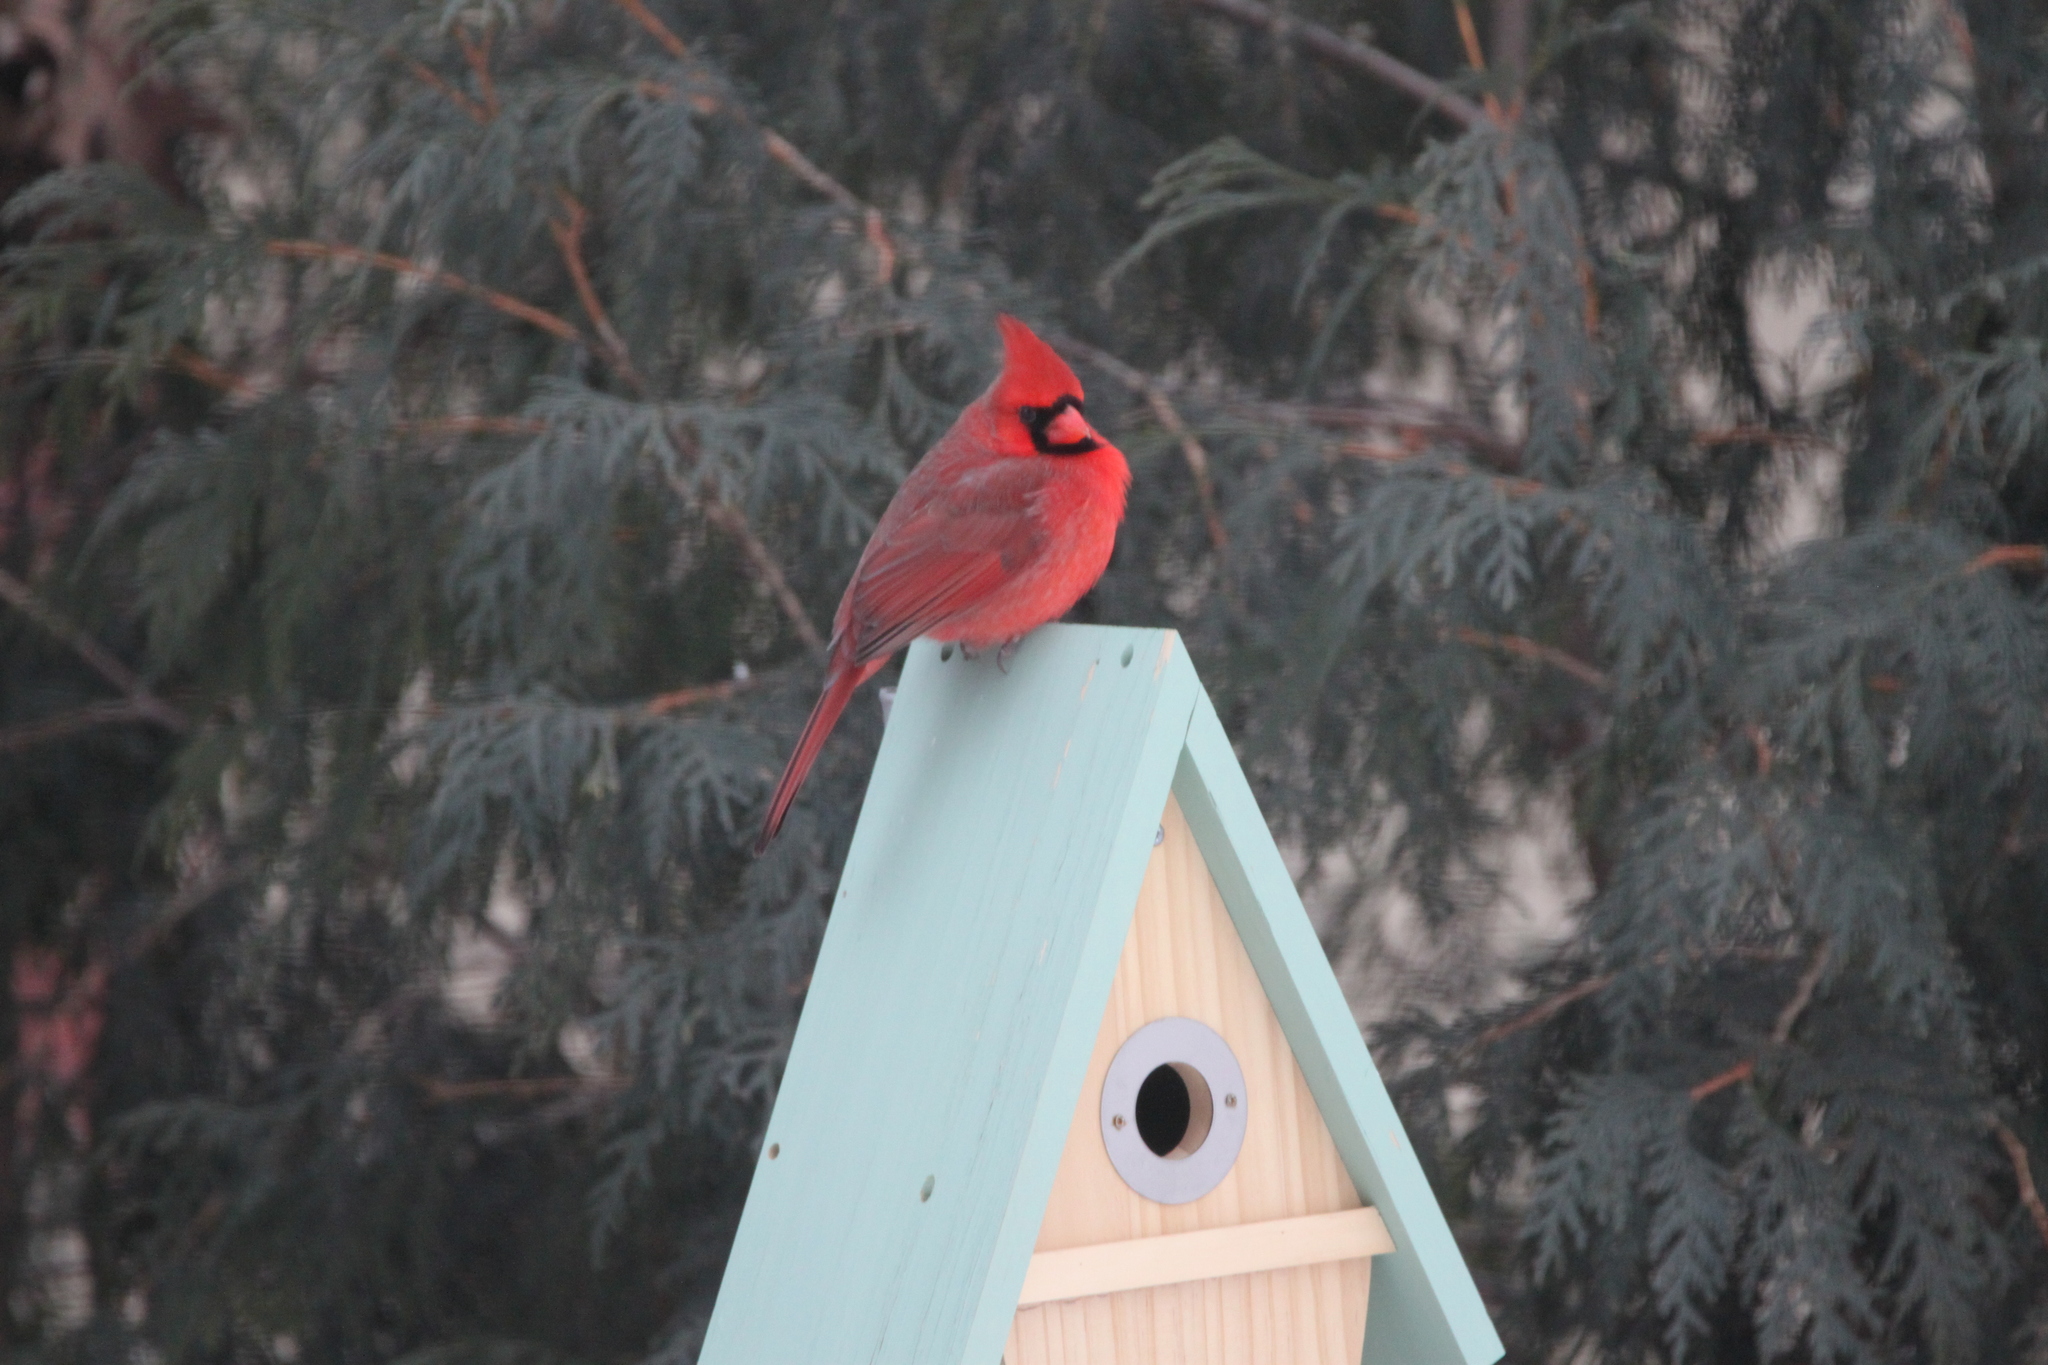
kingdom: Animalia
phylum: Chordata
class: Aves
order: Passeriformes
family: Cardinalidae
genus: Cardinalis
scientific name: Cardinalis cardinalis
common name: Northern cardinal
